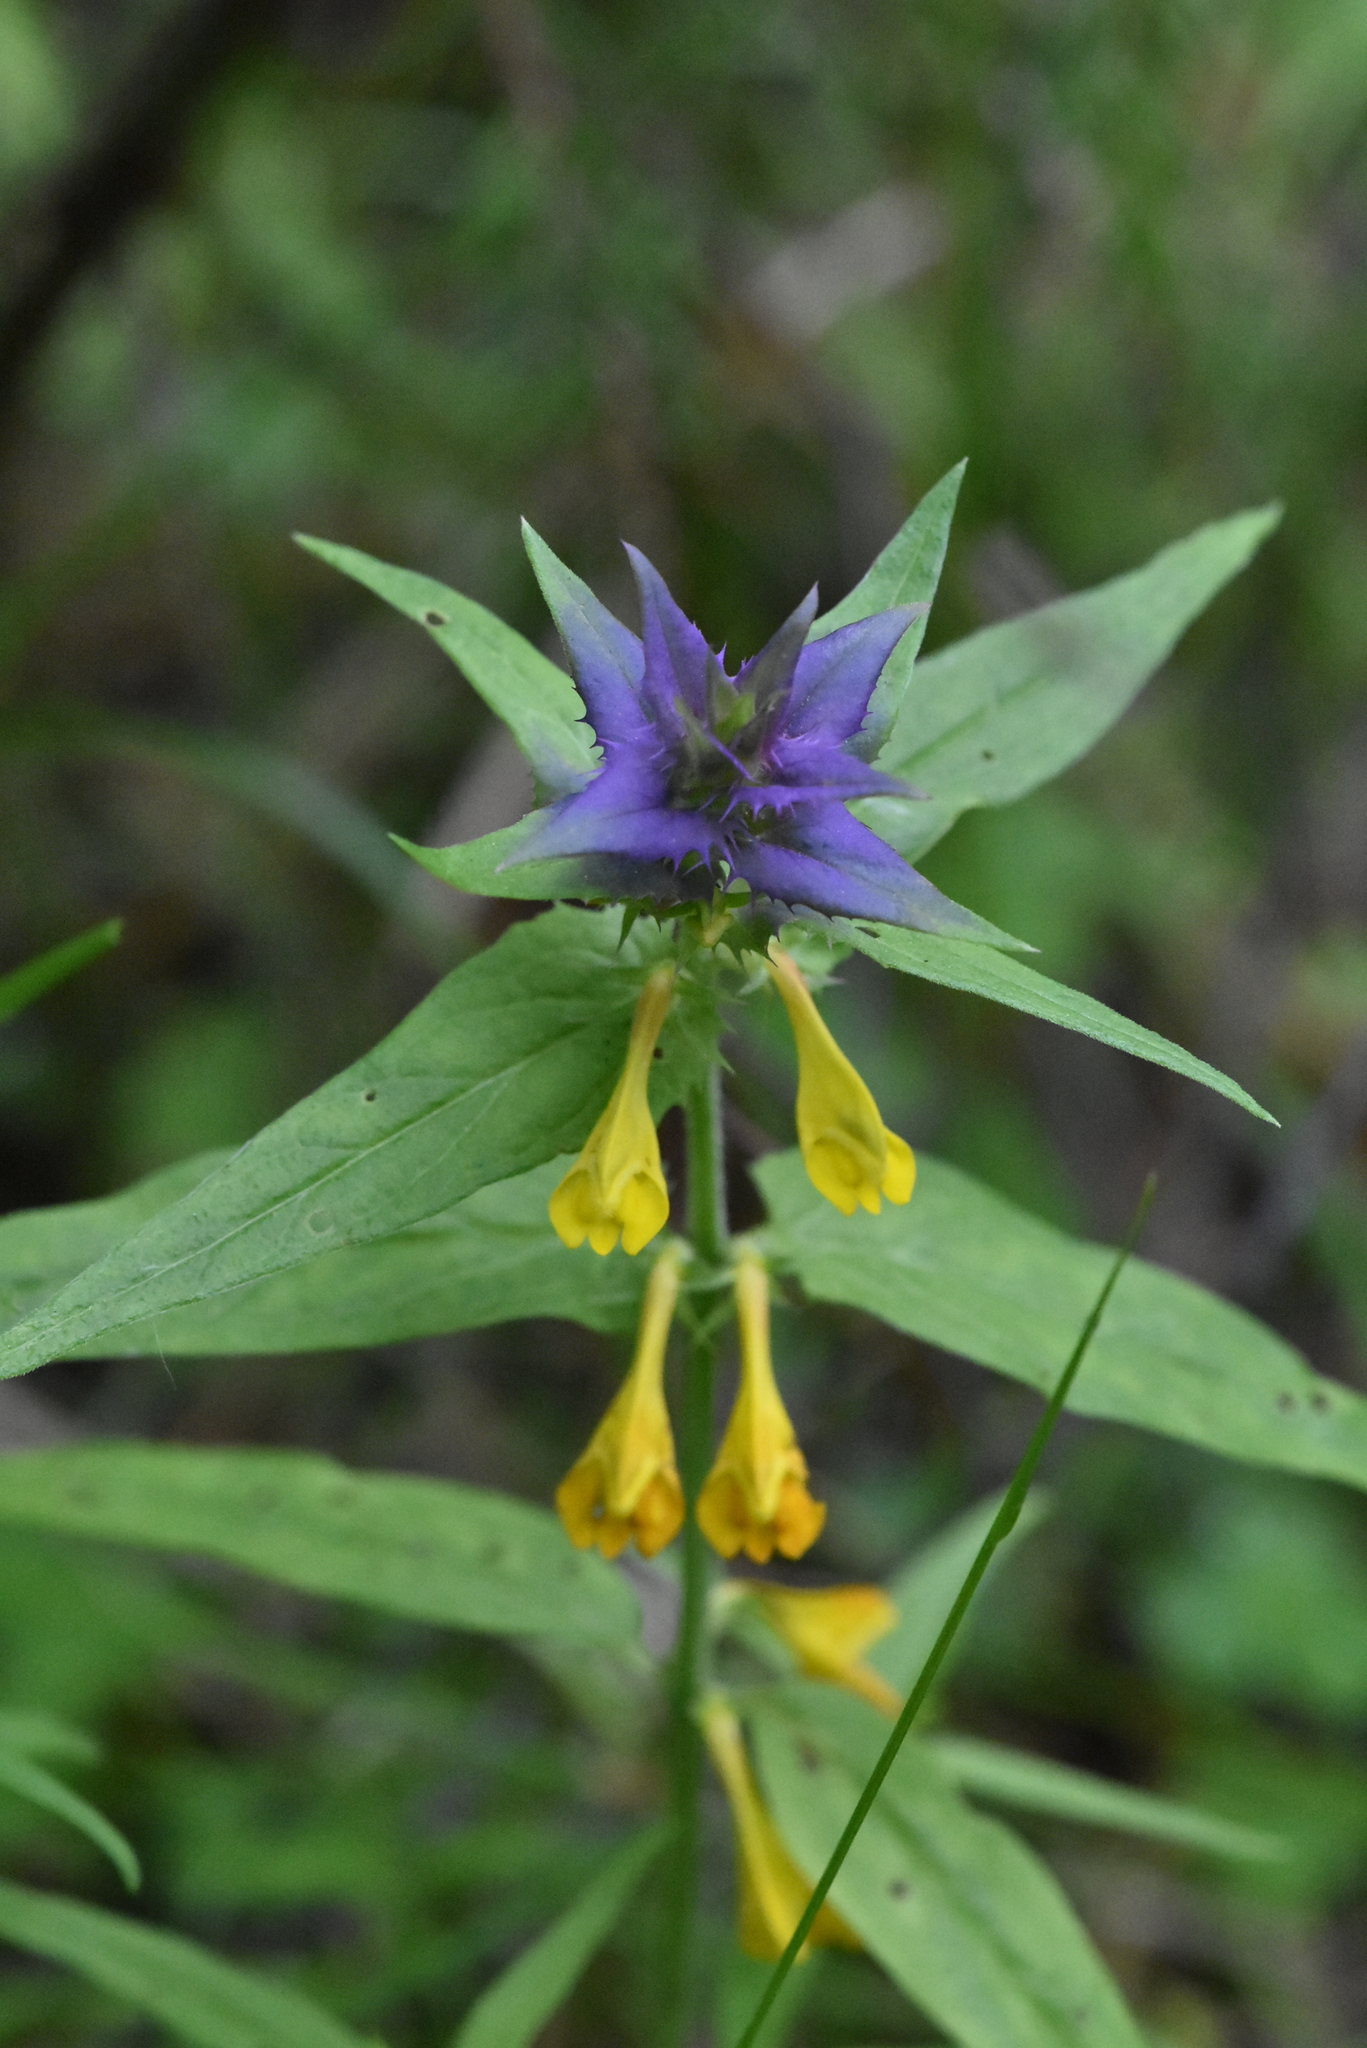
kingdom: Plantae
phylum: Tracheophyta
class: Magnoliopsida
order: Lamiales
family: Orobanchaceae
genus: Melampyrum
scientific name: Melampyrum nemorosum
